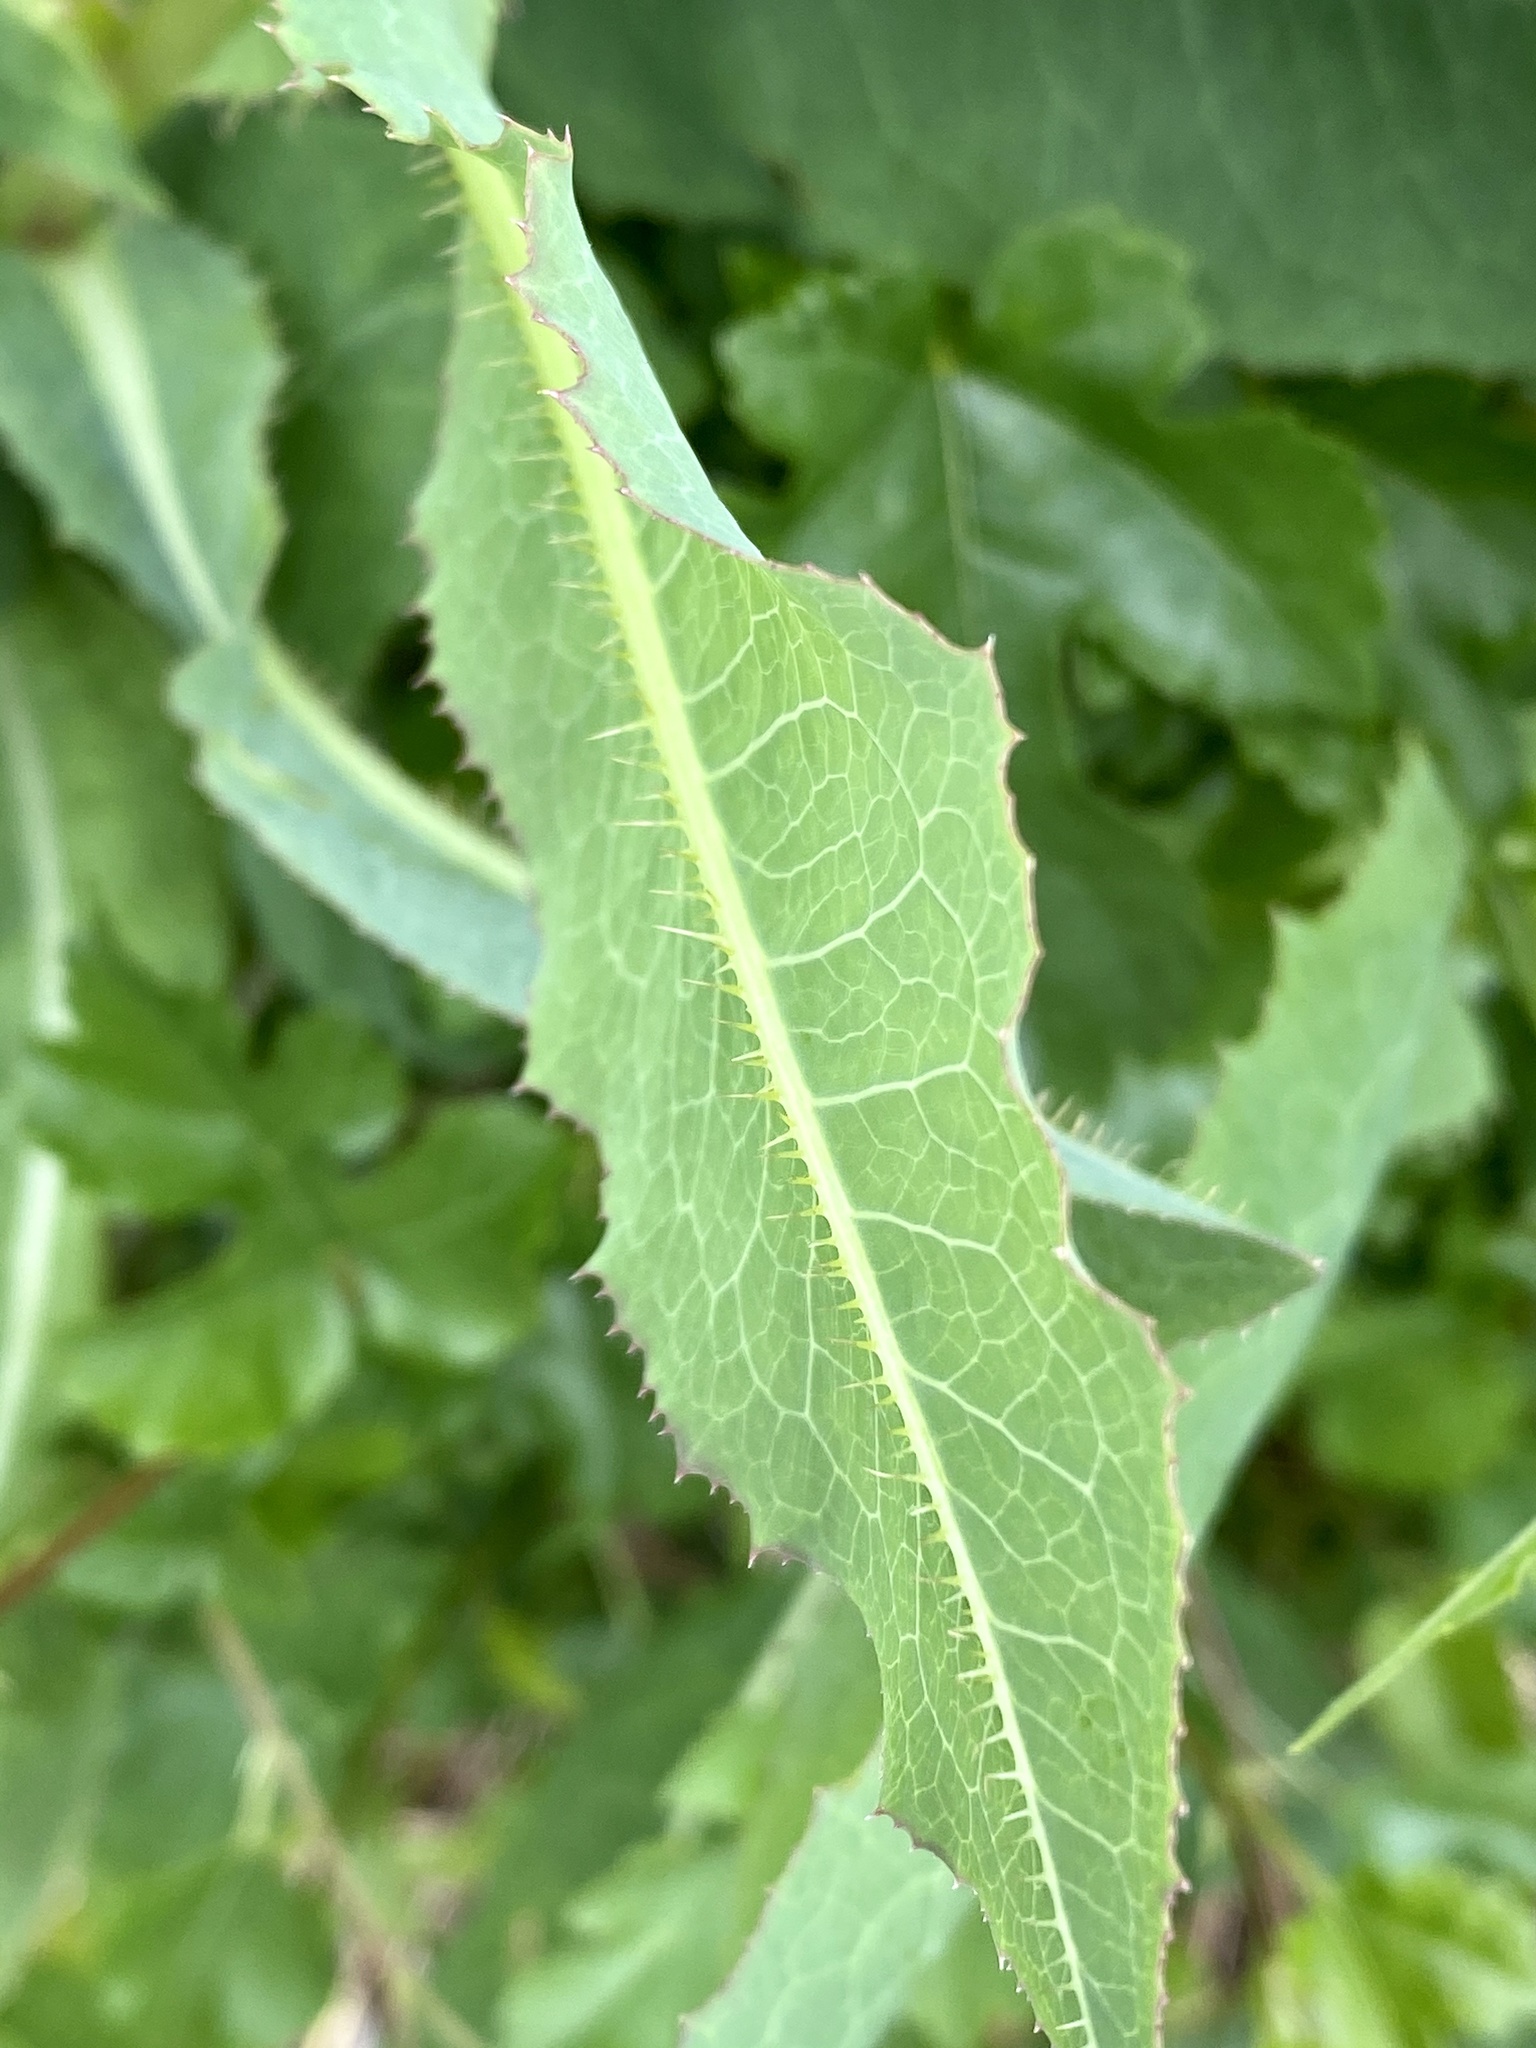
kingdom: Plantae
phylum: Tracheophyta
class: Magnoliopsida
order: Asterales
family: Asteraceae
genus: Lactuca
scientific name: Lactuca serriola
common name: Prickly lettuce
